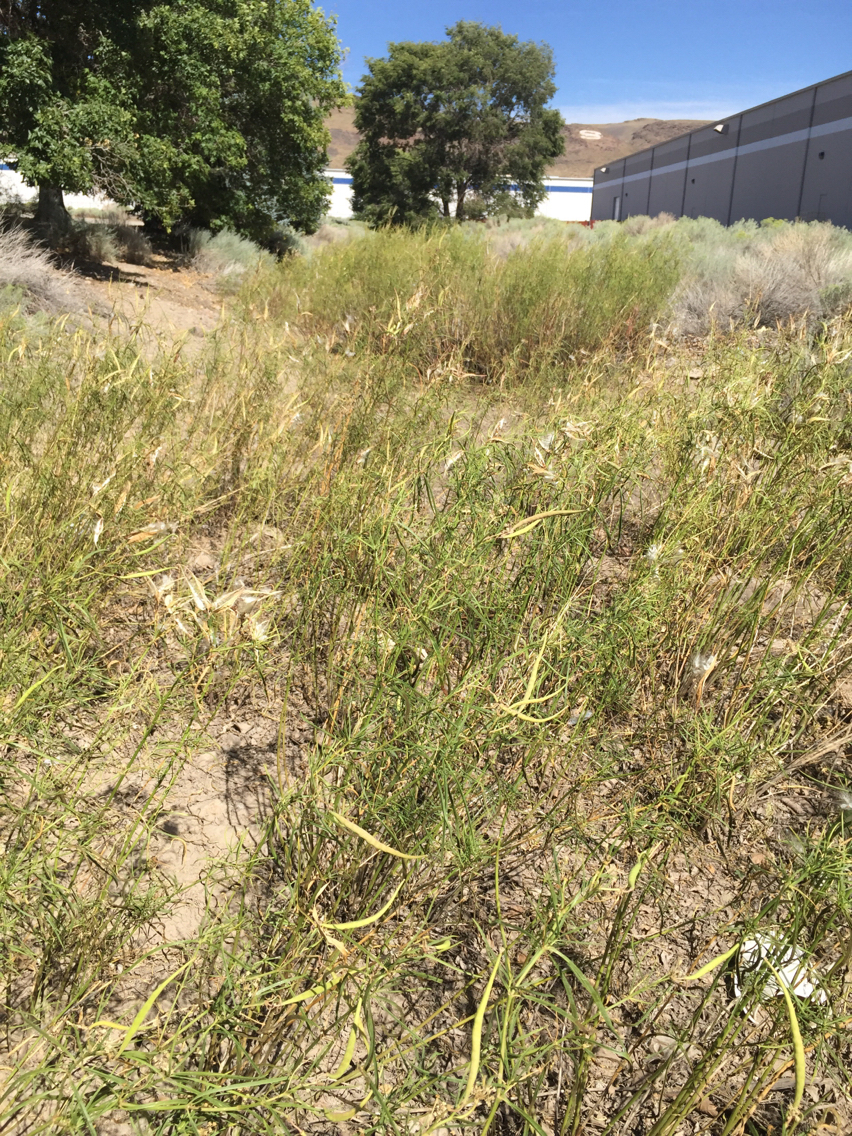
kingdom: Plantae
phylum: Tracheophyta
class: Magnoliopsida
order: Gentianales
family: Apocynaceae
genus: Asclepias
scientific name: Asclepias fascicularis
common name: Mexican milkweed
